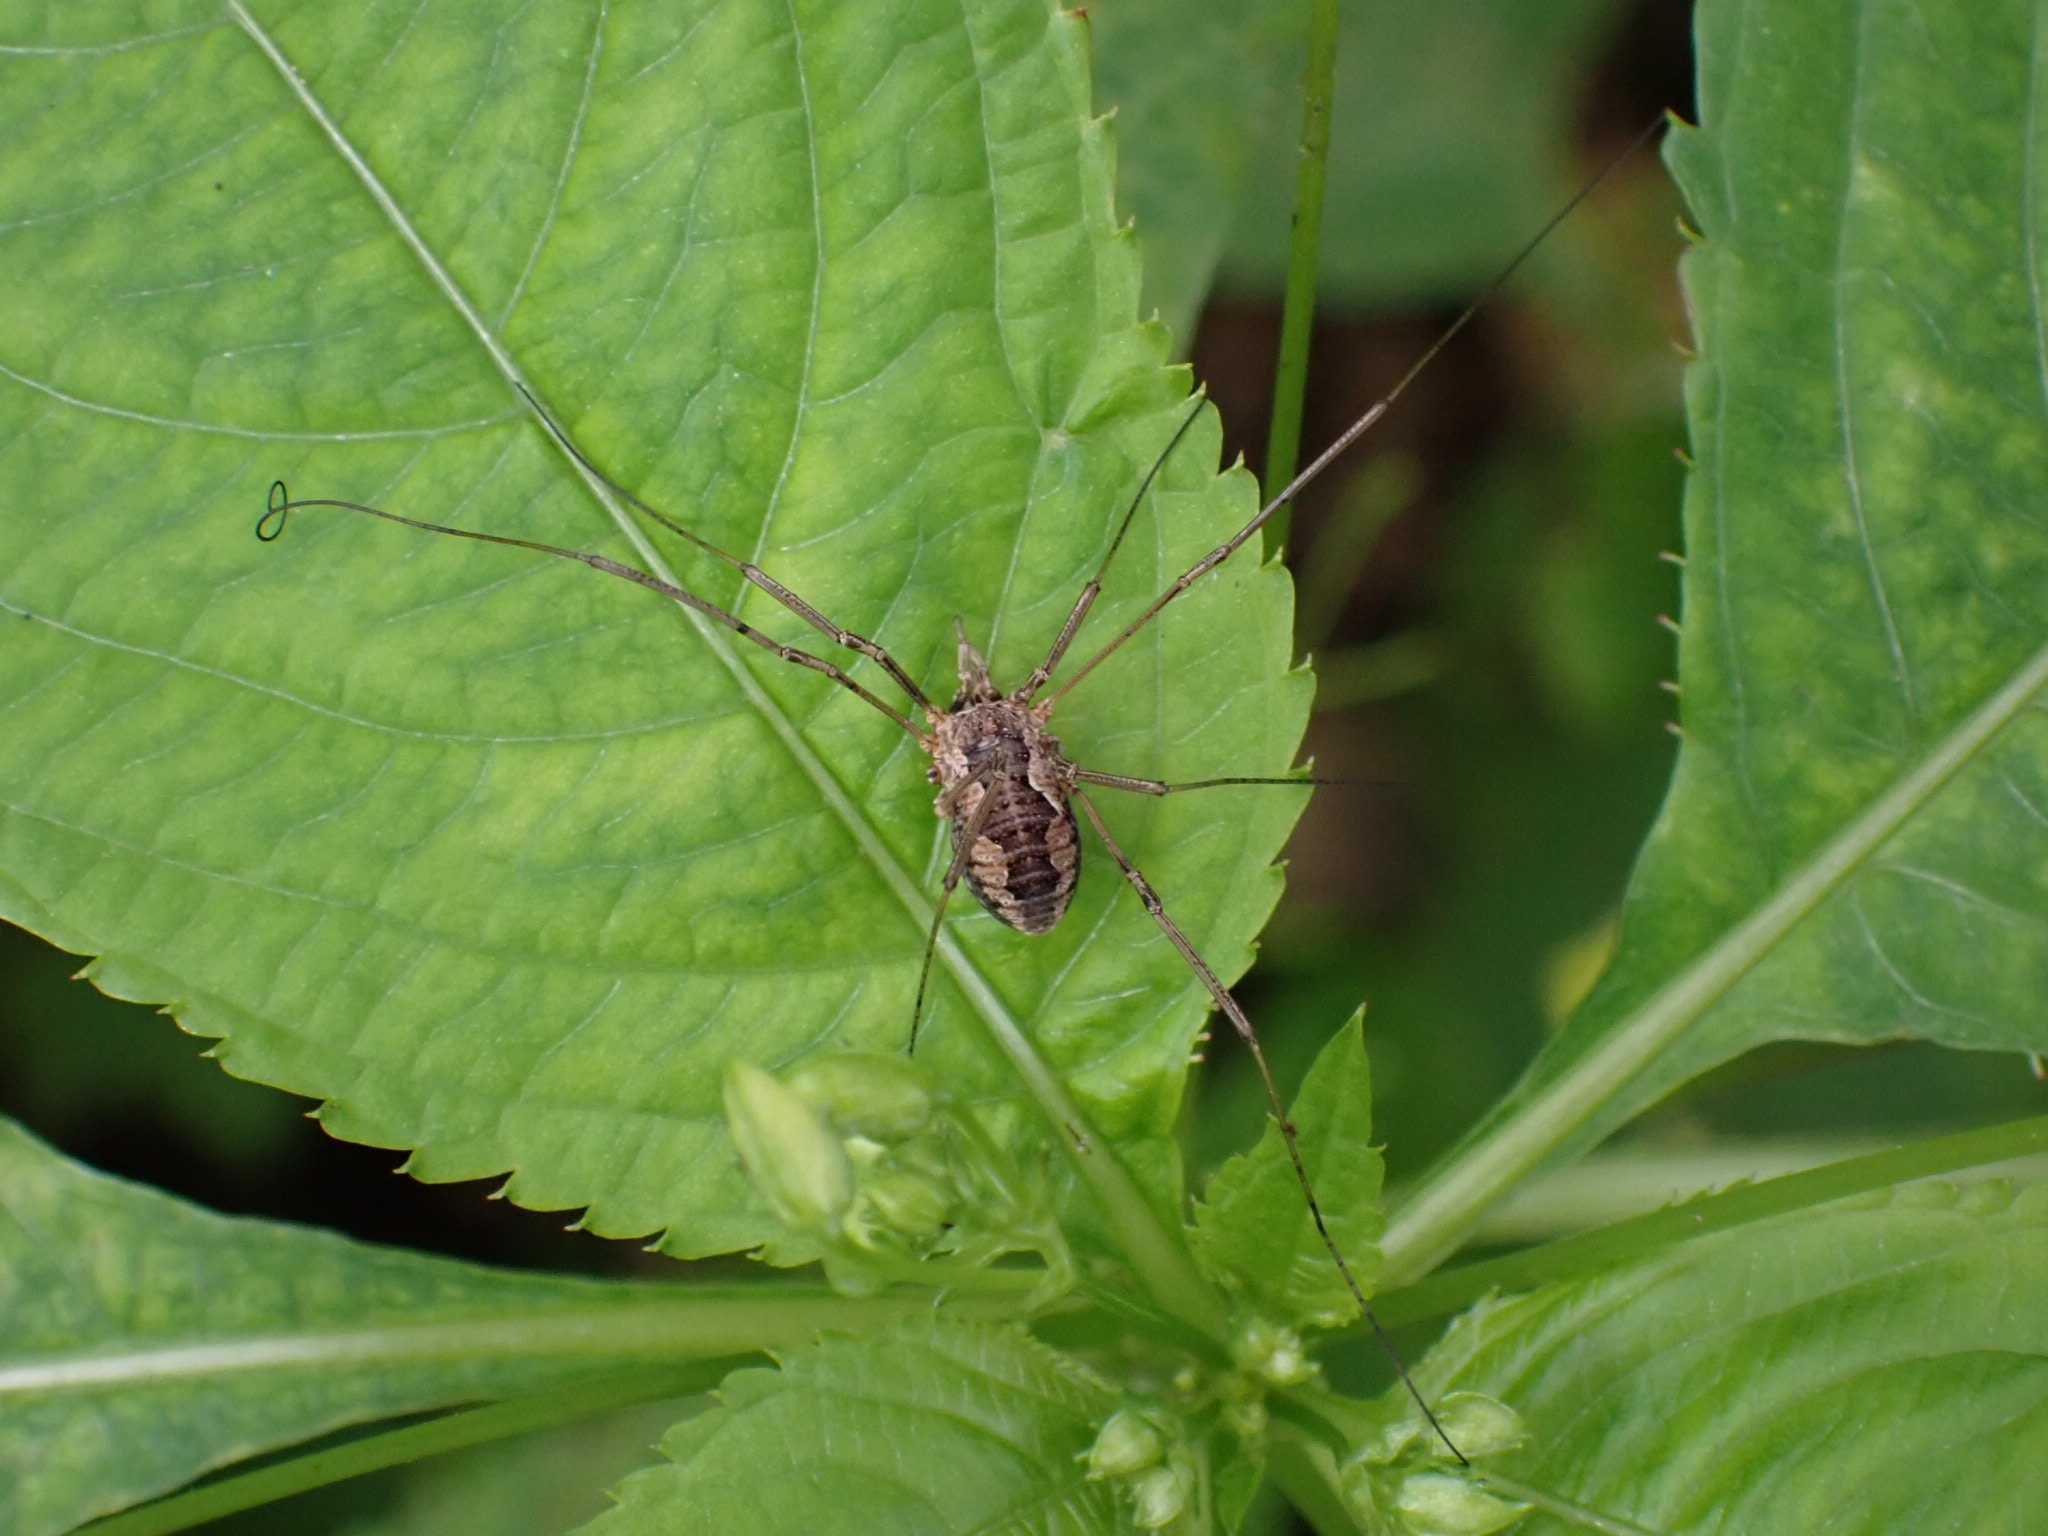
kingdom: Animalia
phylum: Arthropoda
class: Arachnida
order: Opiliones
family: Phalangiidae
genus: Phalangium
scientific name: Phalangium opilio
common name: Daddy longleg
